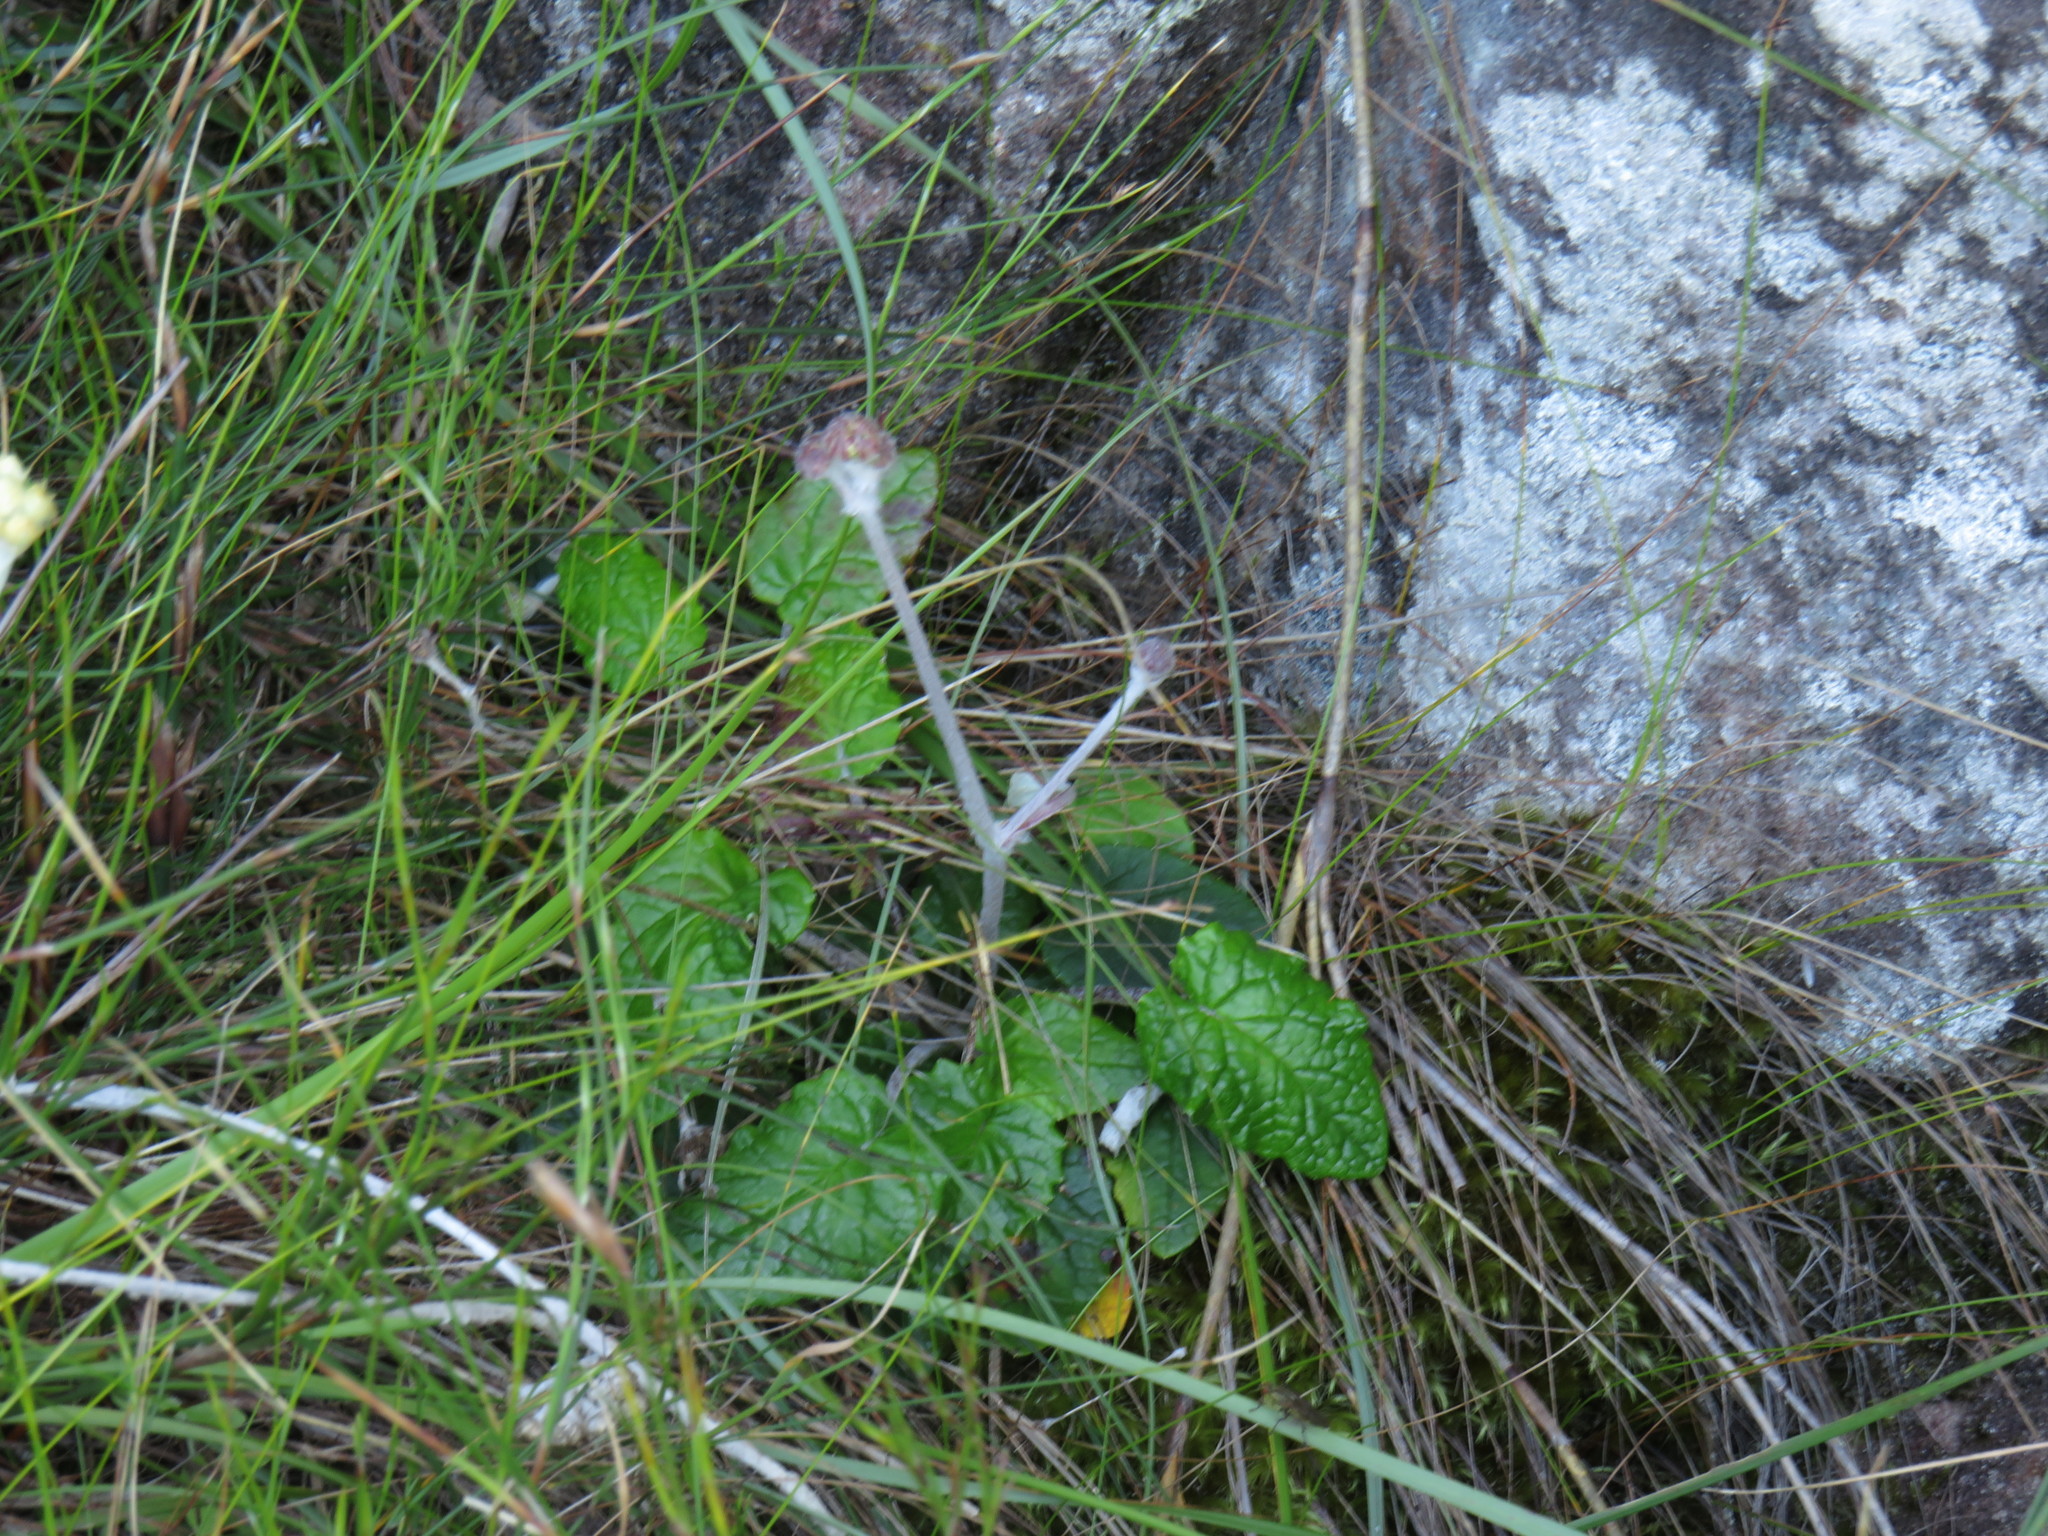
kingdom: Plantae
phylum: Tracheophyta
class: Magnoliopsida
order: Apiales
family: Apiaceae
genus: Hermas
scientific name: Hermas capitata
